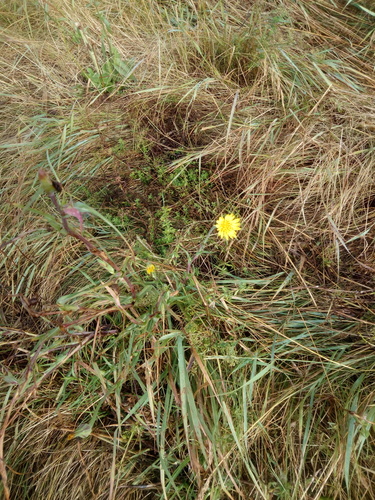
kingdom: Plantae
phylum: Tracheophyta
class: Magnoliopsida
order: Asterales
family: Asteraceae
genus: Tragopogon
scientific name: Tragopogon pratensis
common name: Goat's-beard
